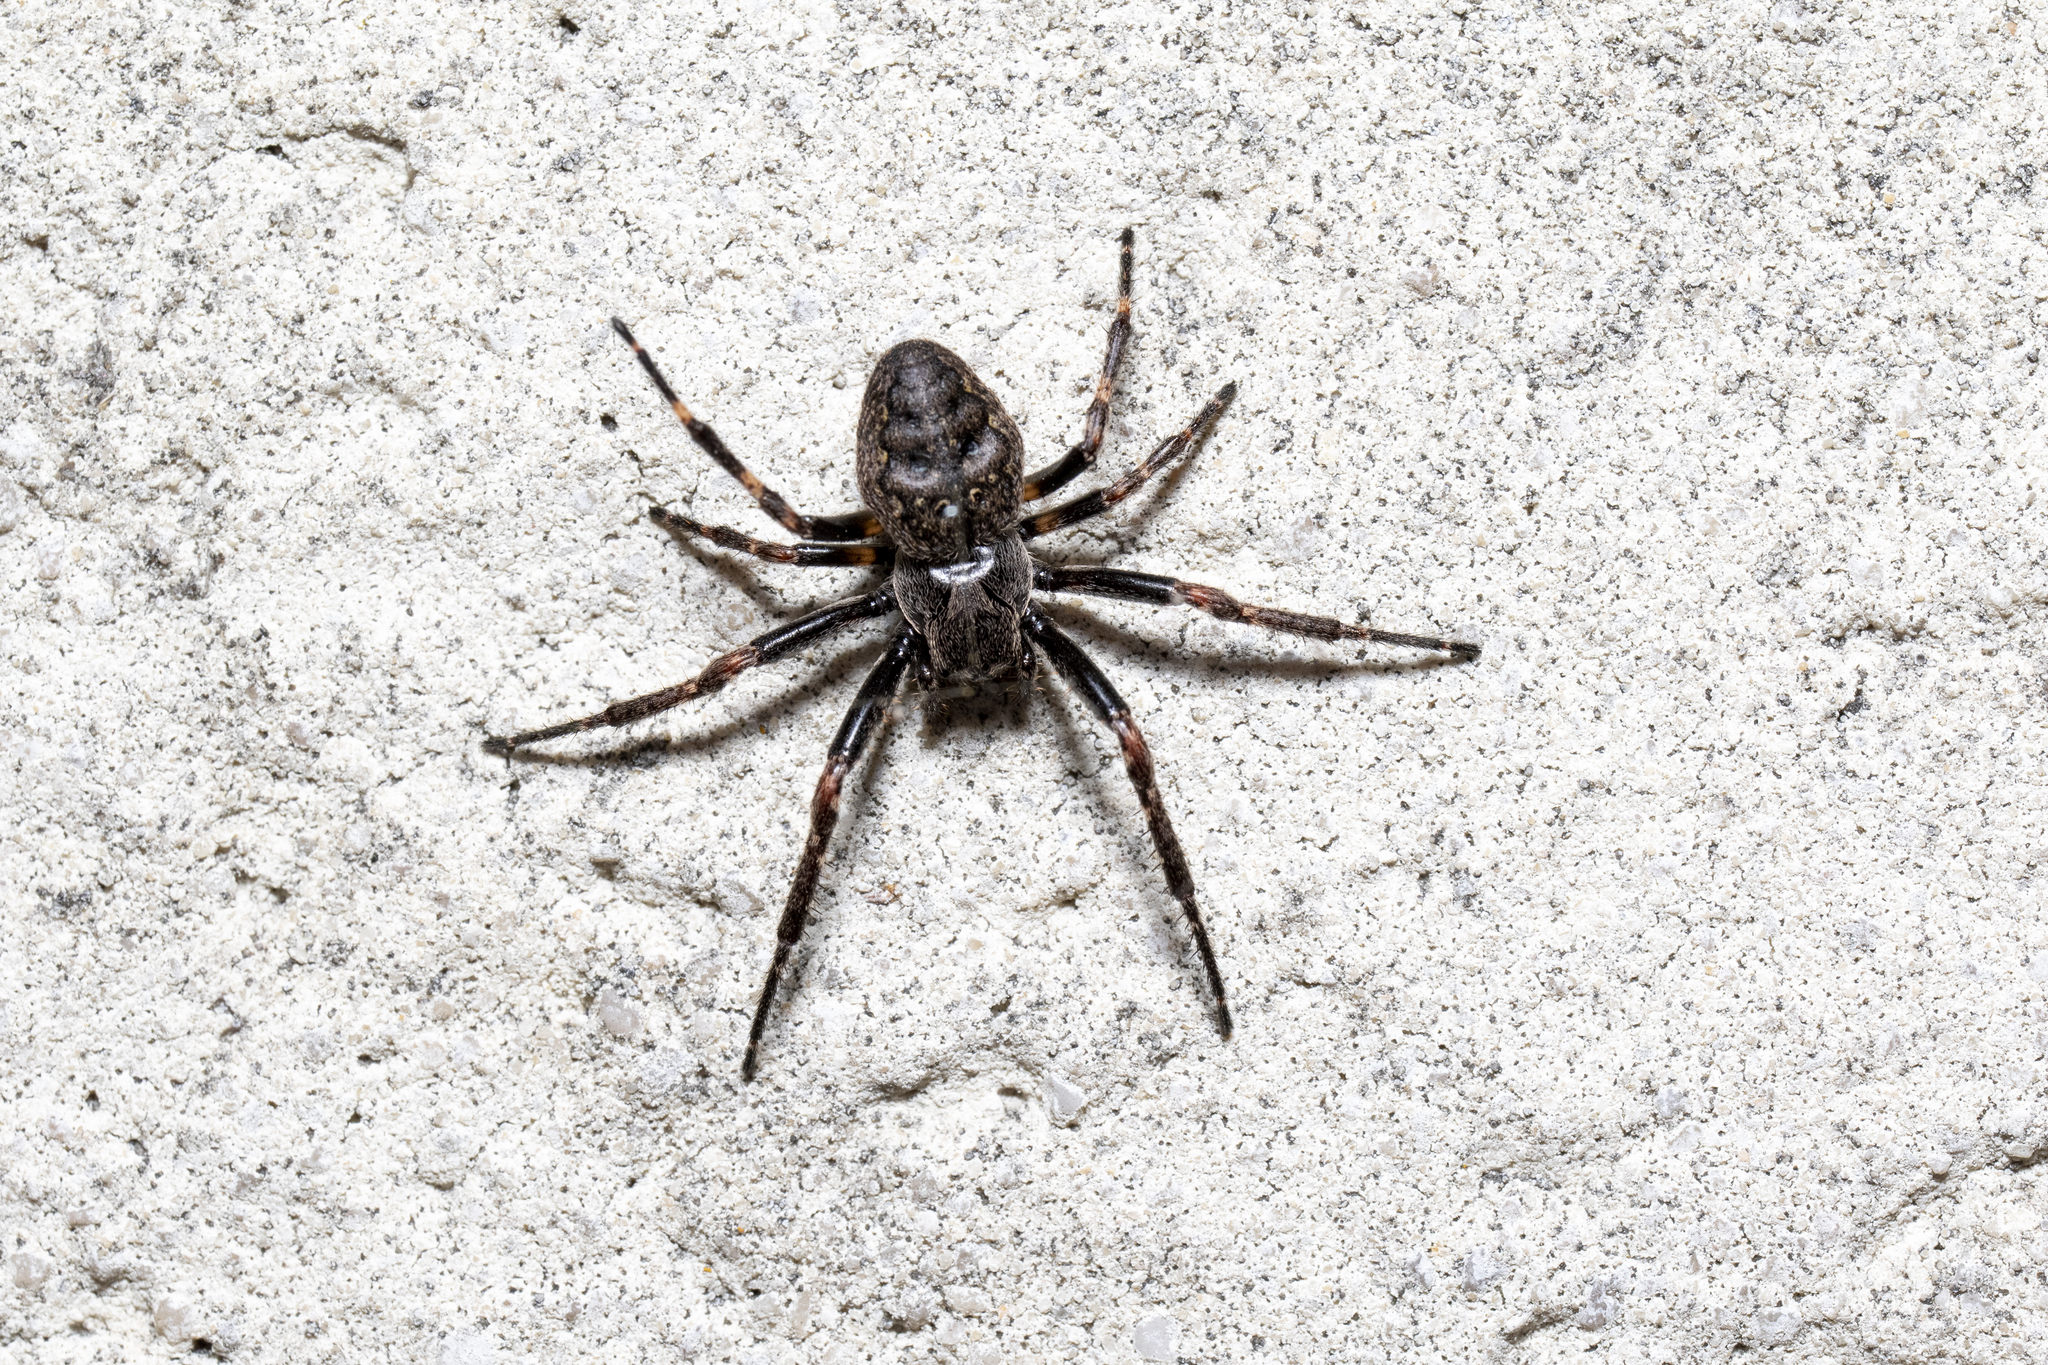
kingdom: Animalia
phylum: Arthropoda
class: Arachnida
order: Araneae
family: Araneidae
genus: Nuctenea
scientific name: Nuctenea umbratica
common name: Toad spider
